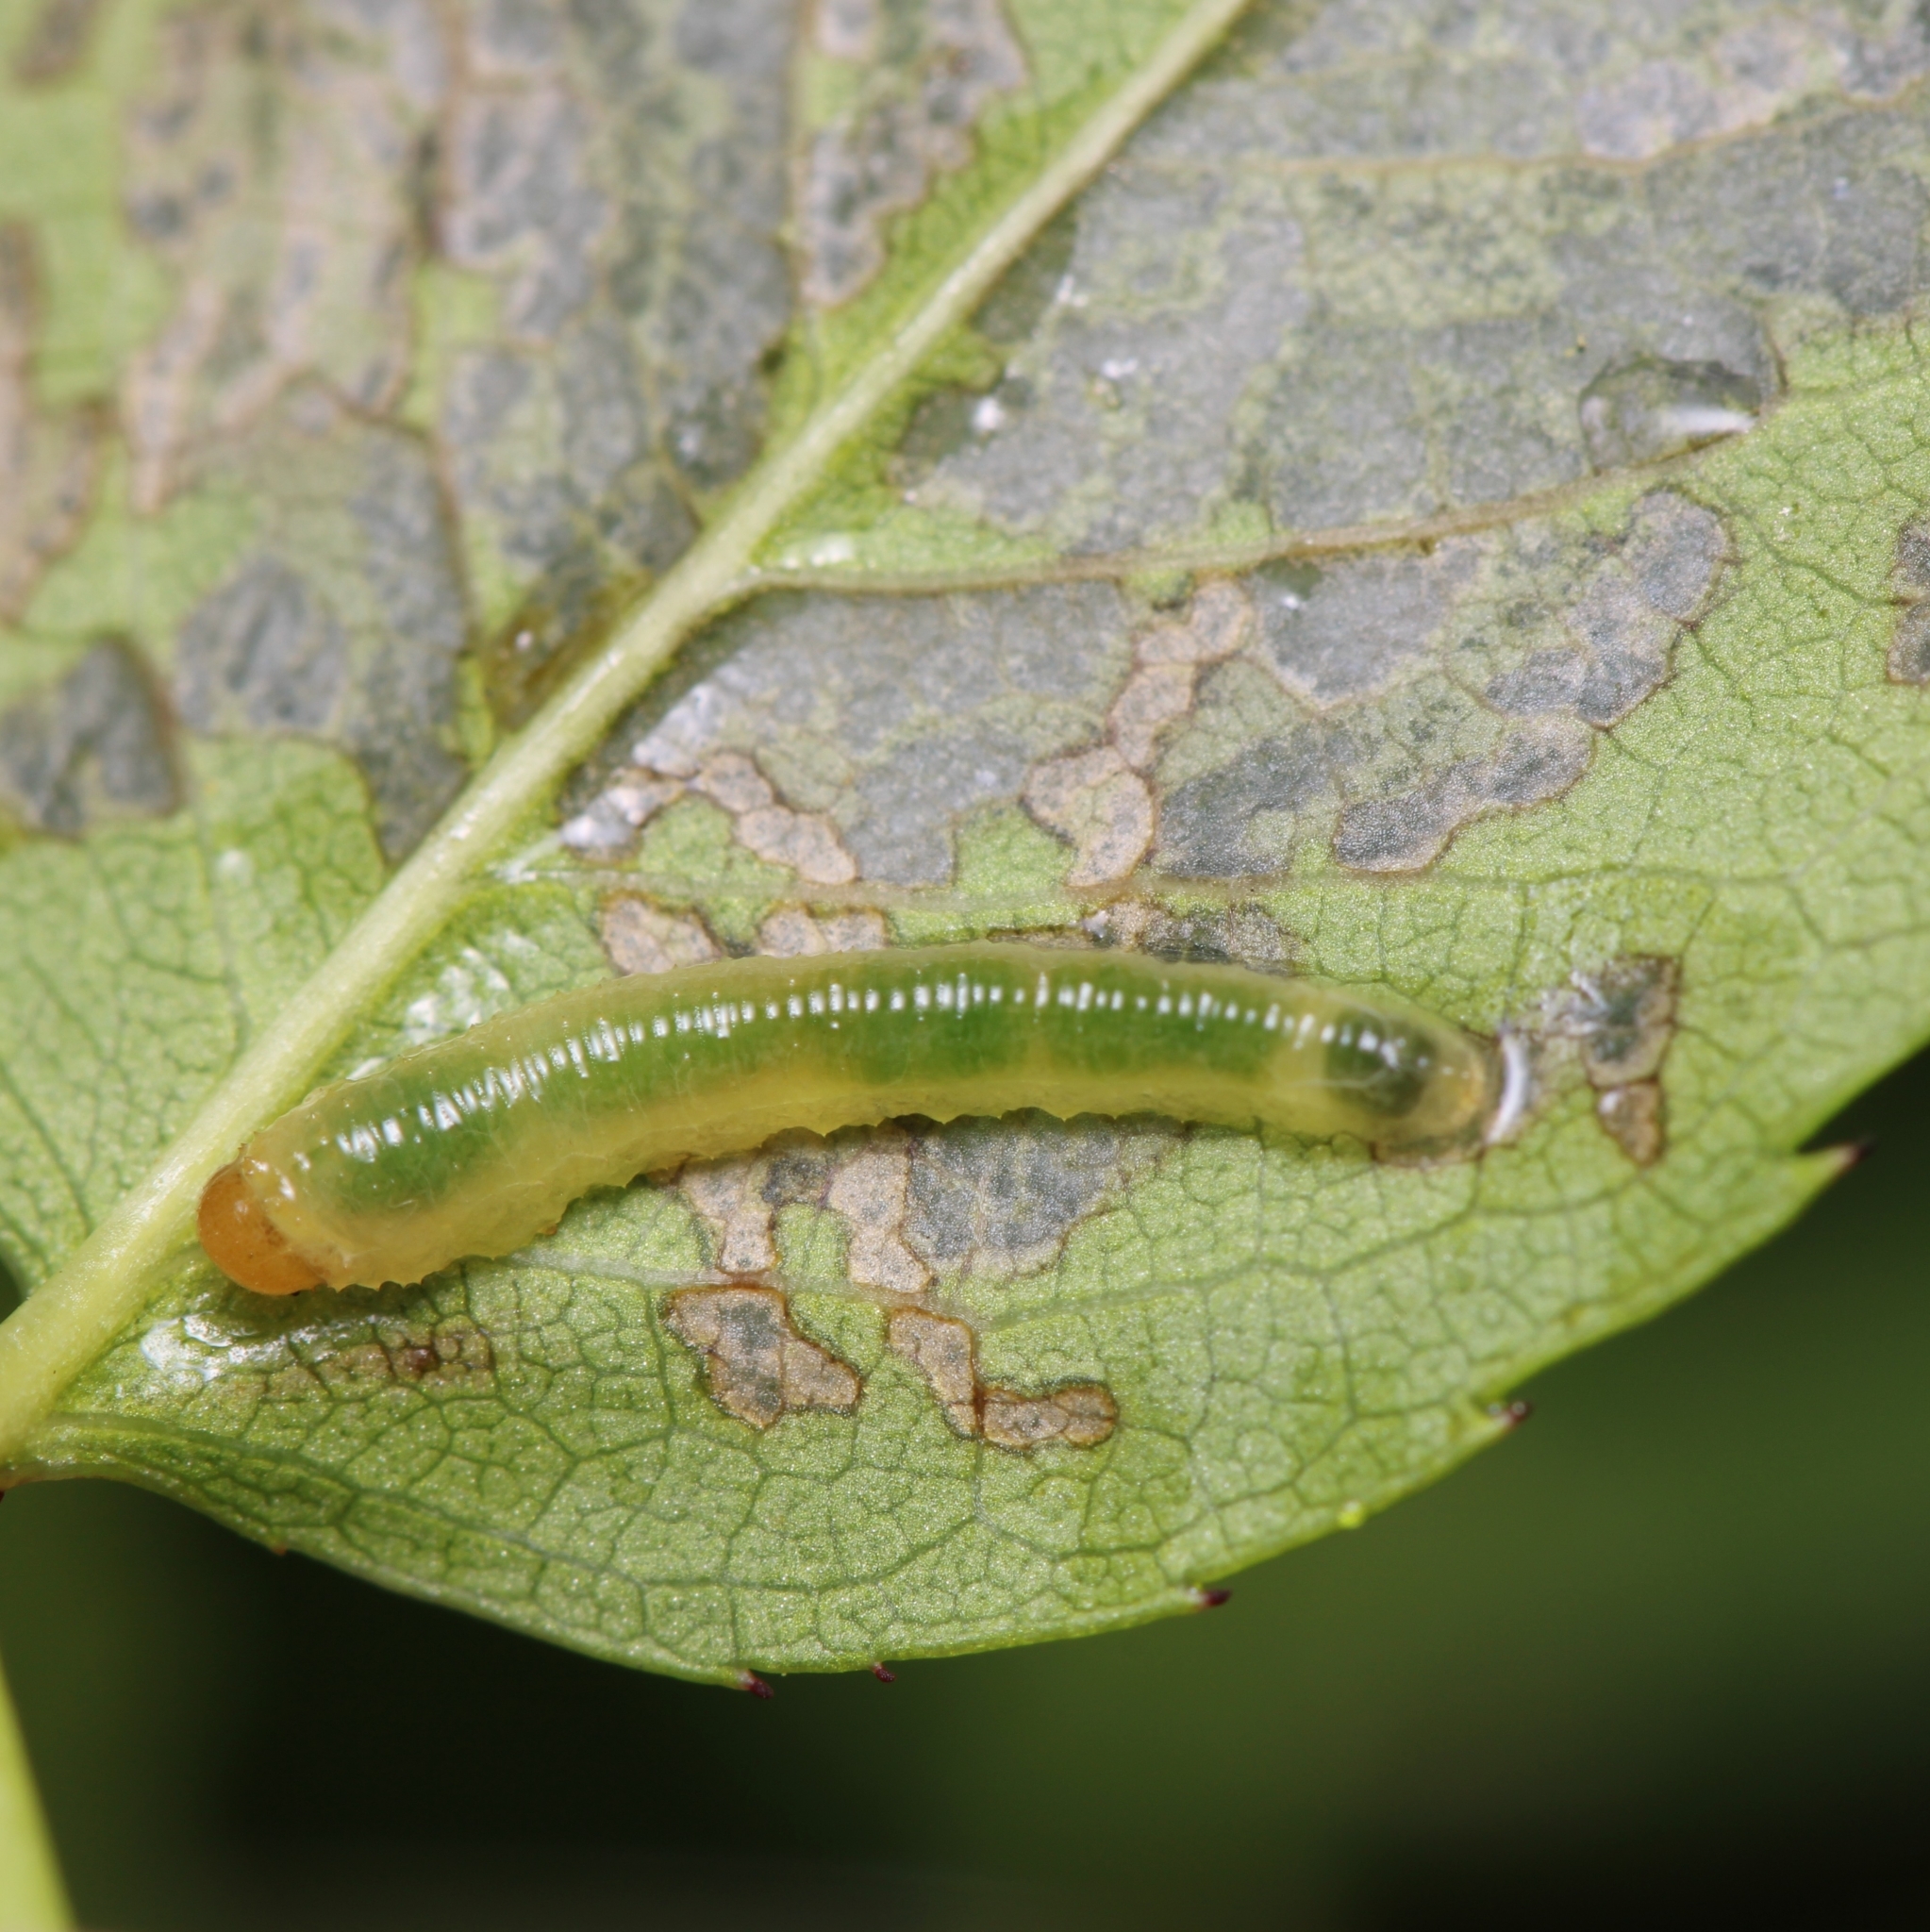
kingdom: Animalia
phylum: Arthropoda
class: Insecta
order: Hymenoptera
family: Tenthredinidae
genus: Endelomyia
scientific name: Endelomyia aethiops
